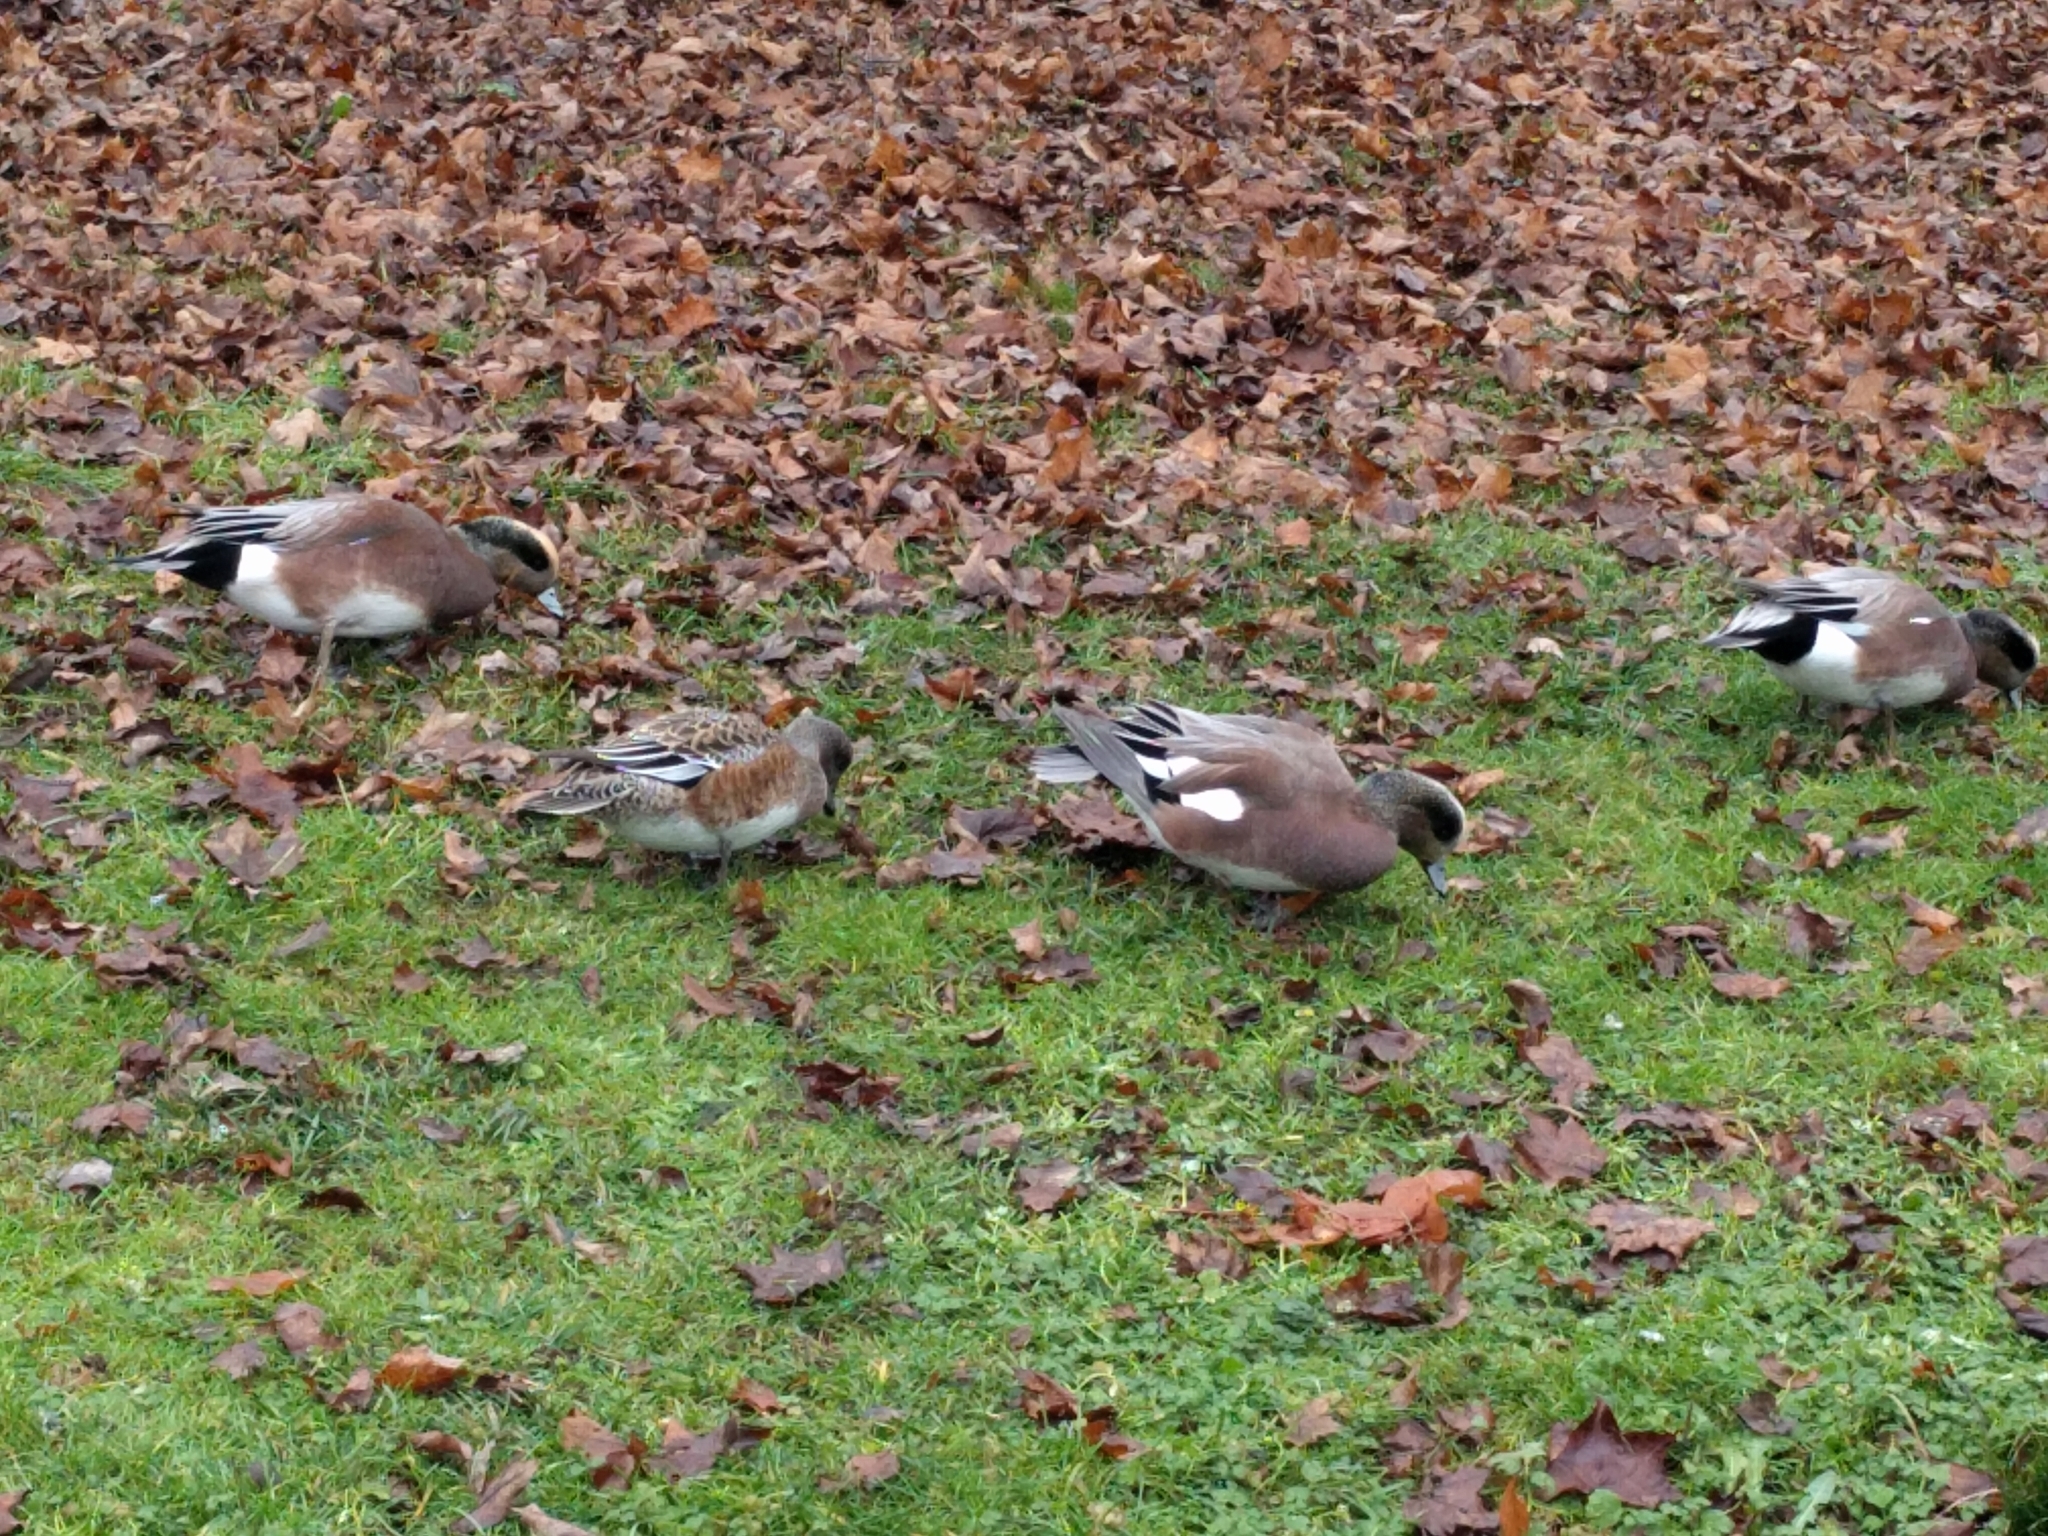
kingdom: Animalia
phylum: Chordata
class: Aves
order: Anseriformes
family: Anatidae
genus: Mareca
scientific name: Mareca americana
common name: American wigeon
